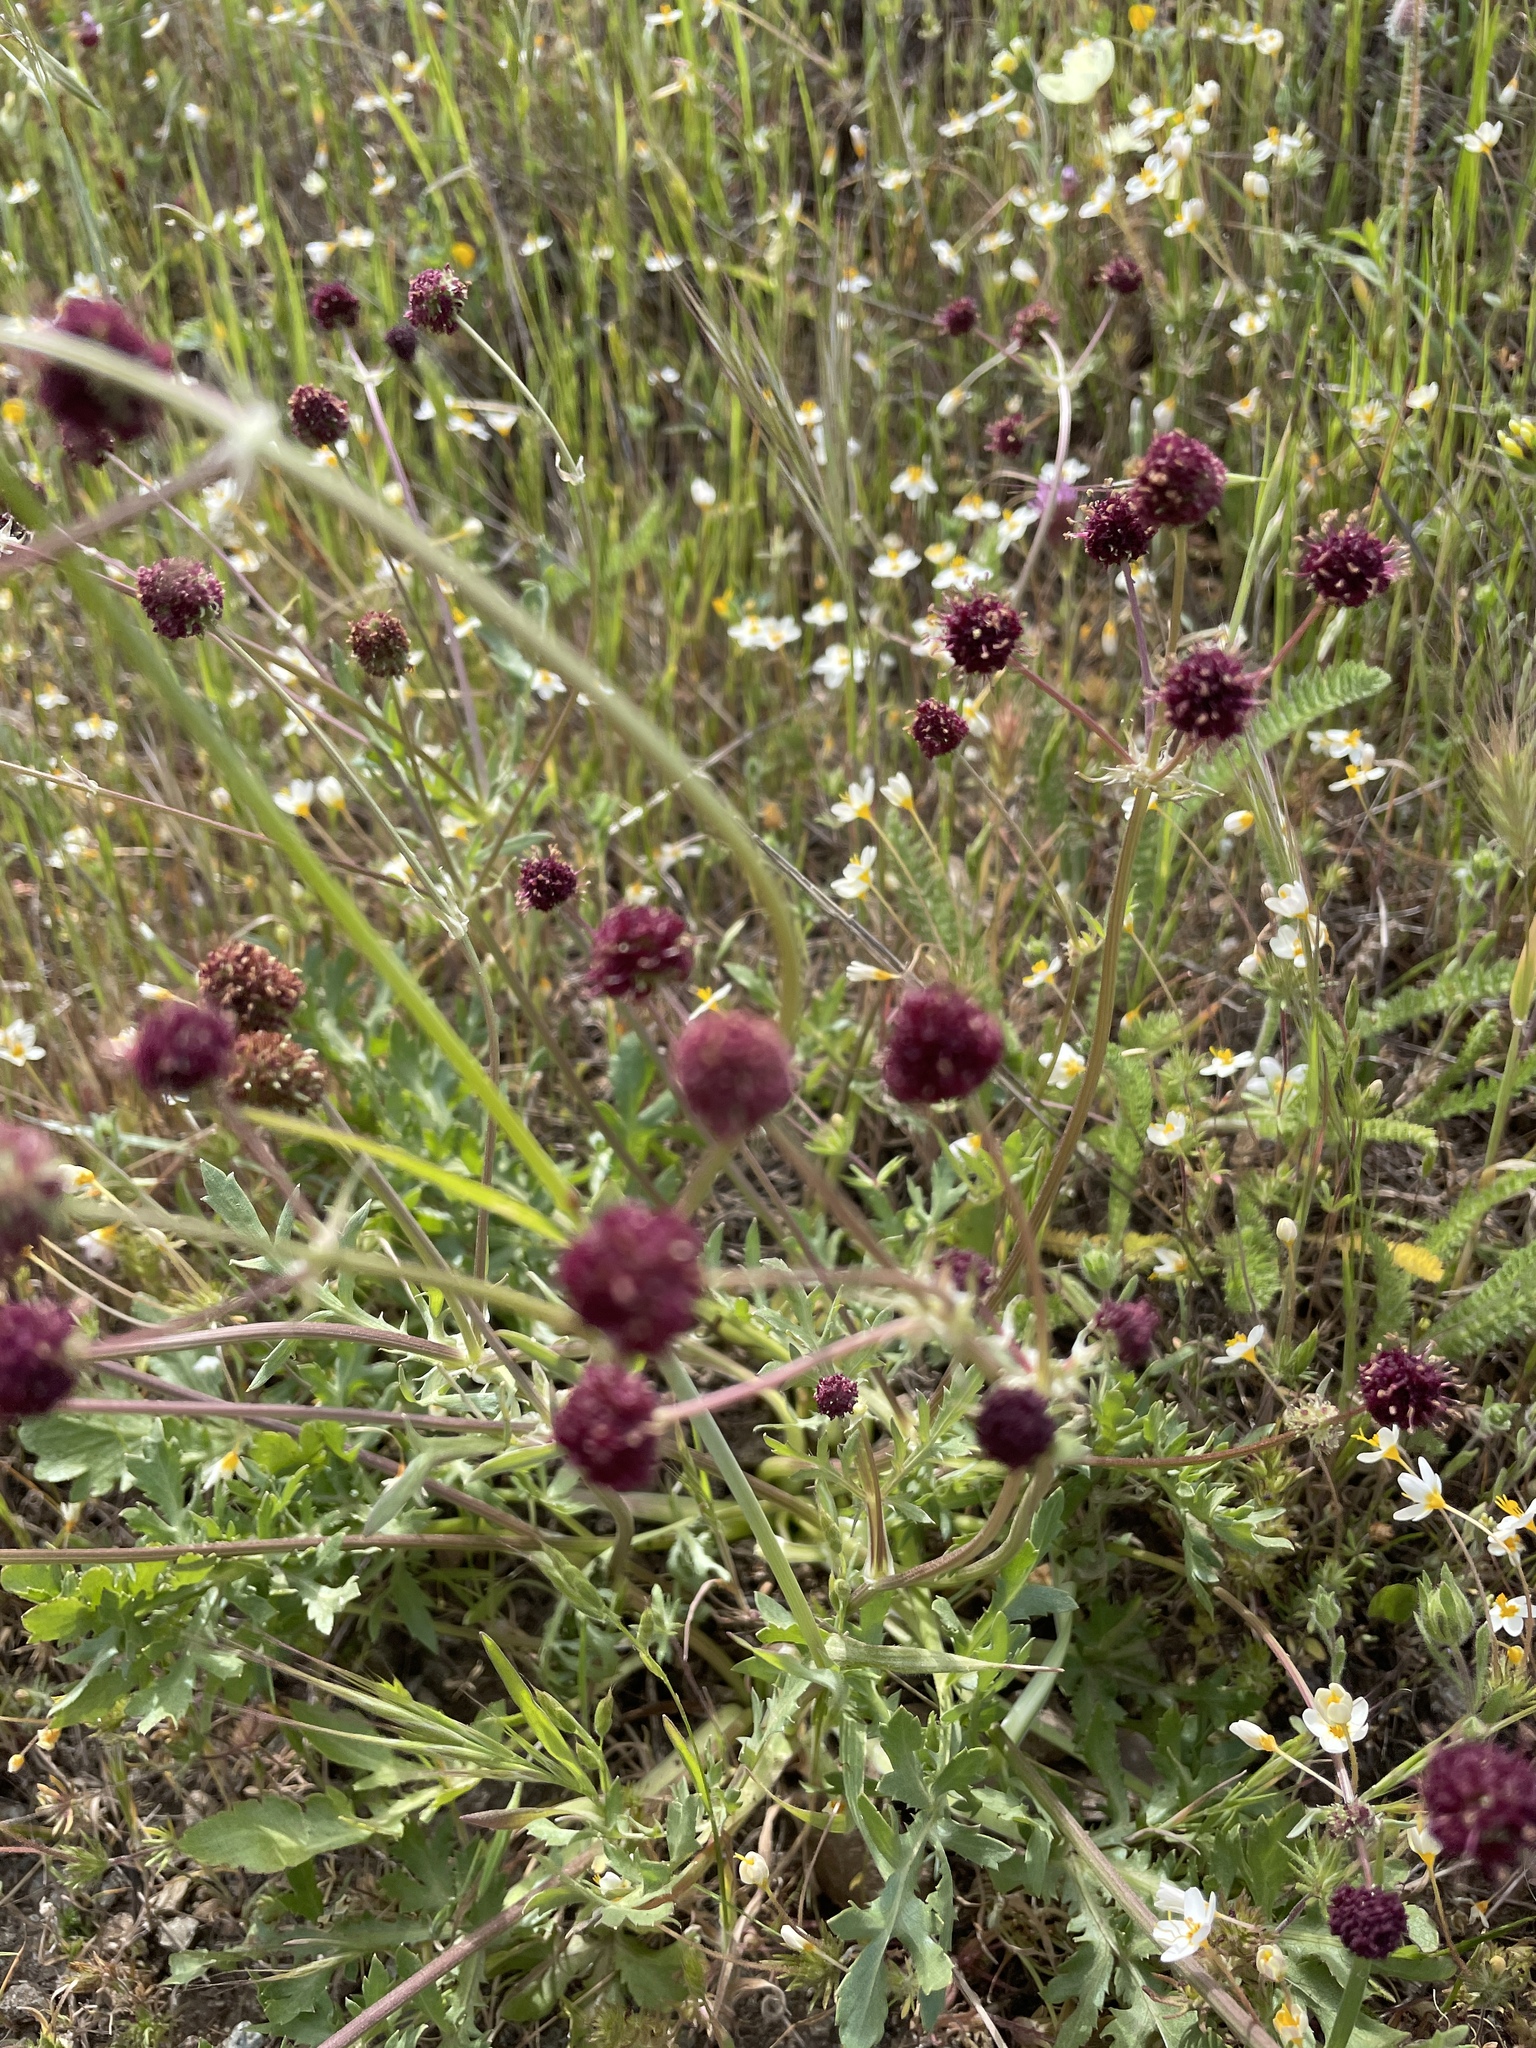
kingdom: Plantae
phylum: Tracheophyta
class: Magnoliopsida
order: Apiales
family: Apiaceae
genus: Sanicula
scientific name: Sanicula bipinnatifida
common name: Shoe-buttons
